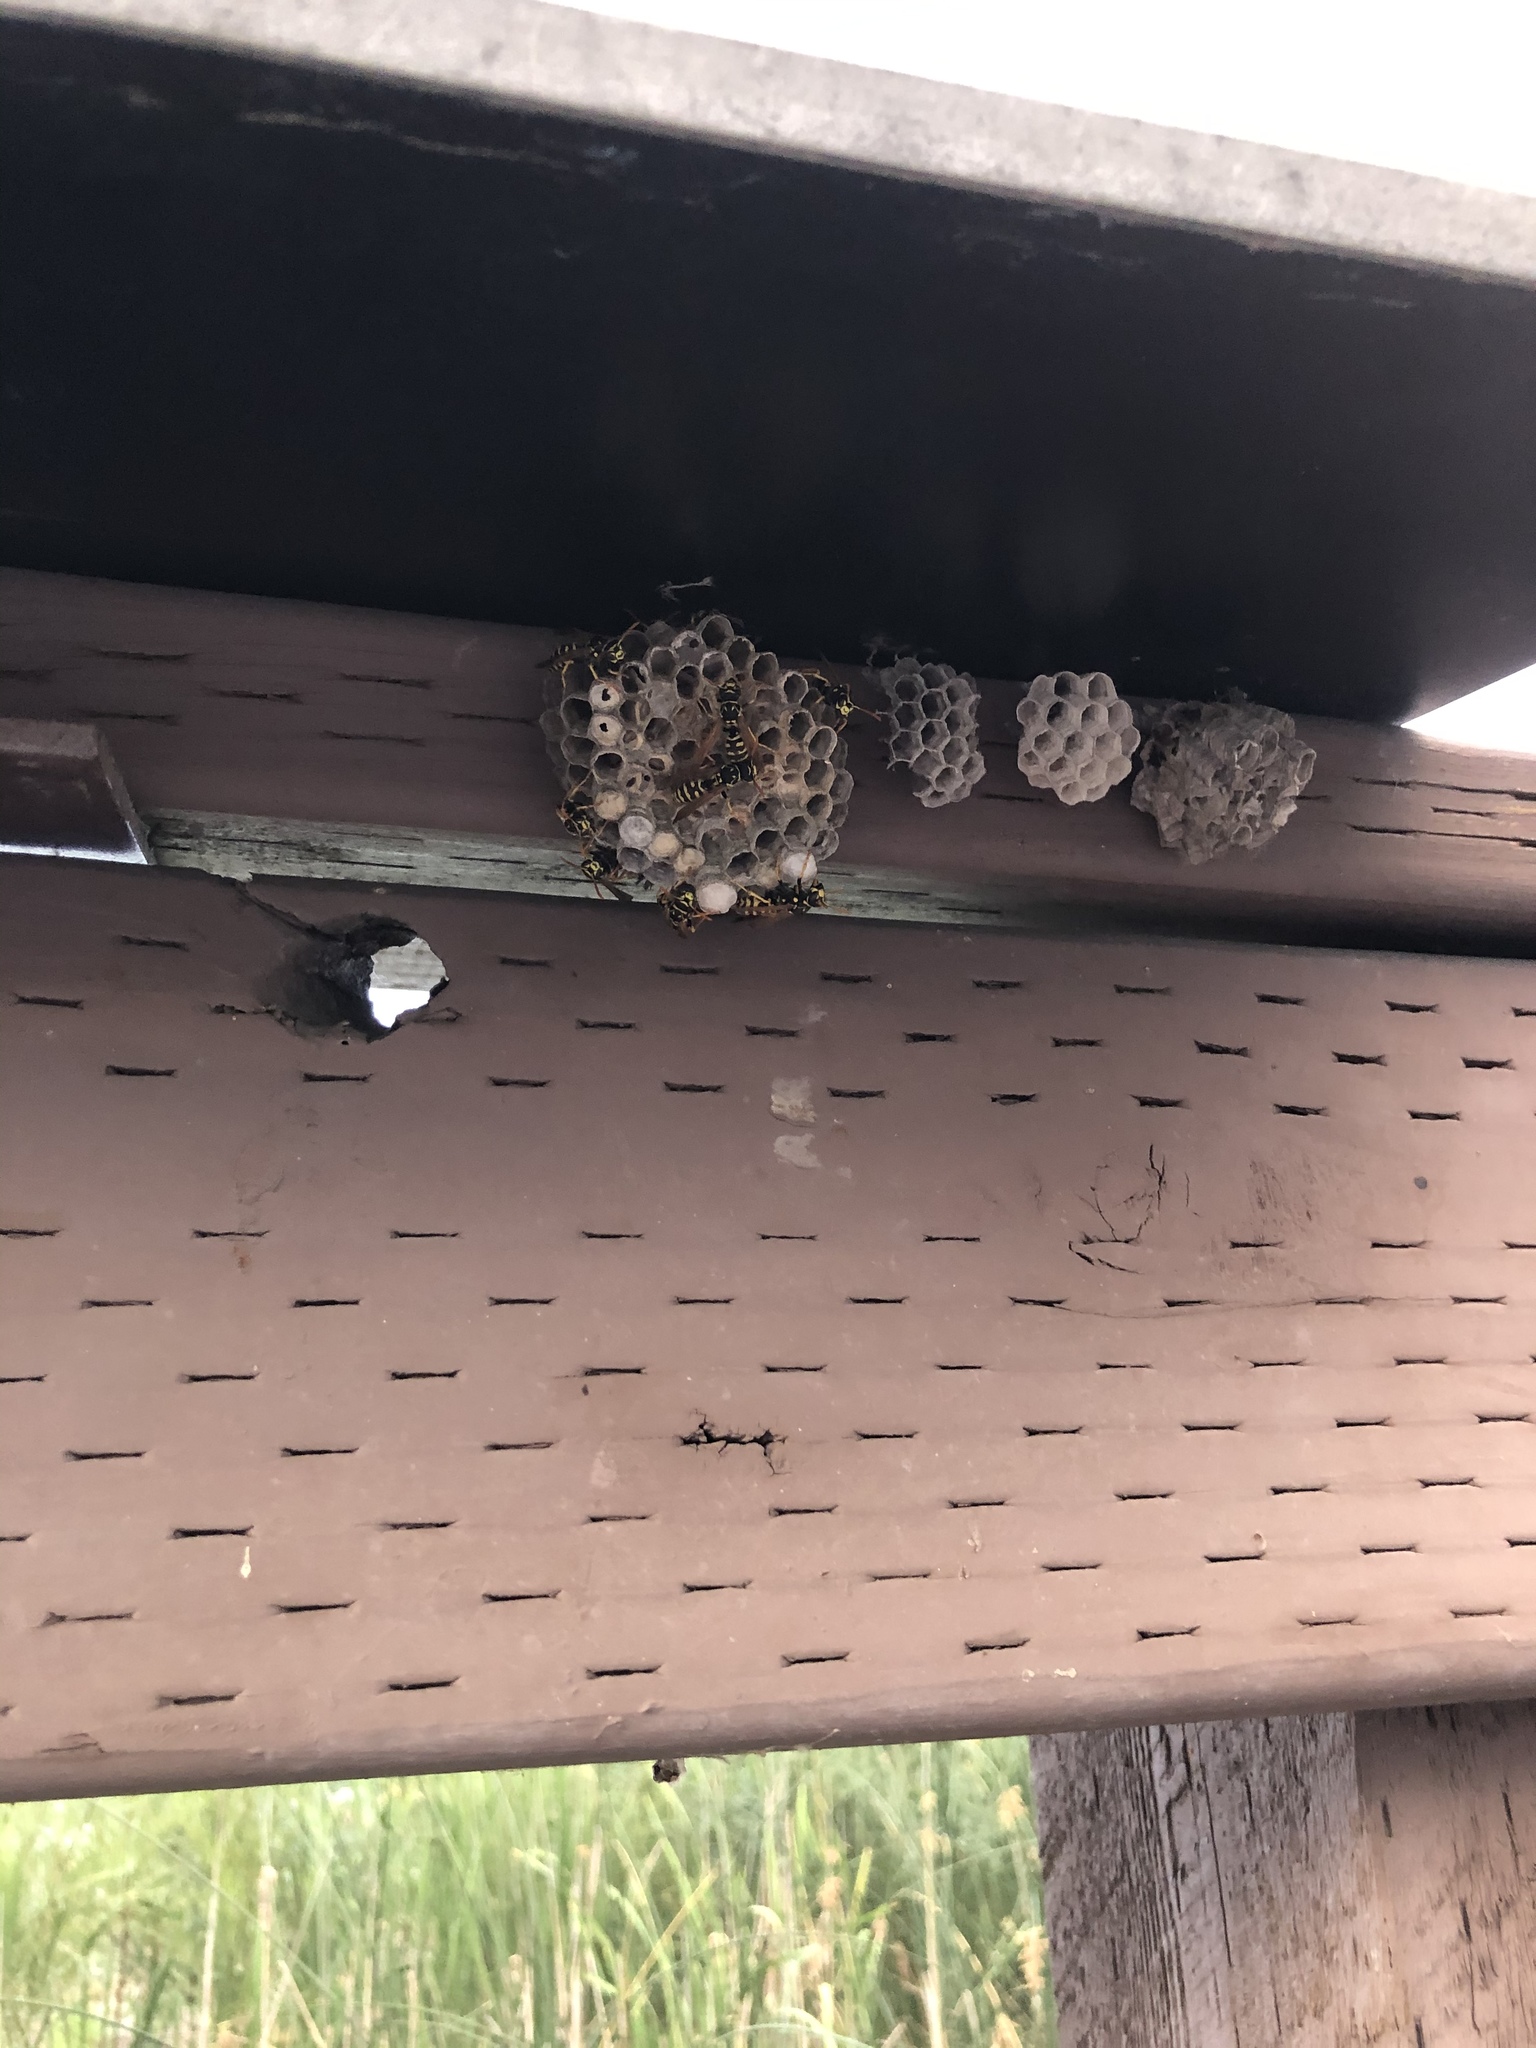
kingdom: Animalia
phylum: Arthropoda
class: Insecta
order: Hymenoptera
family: Eumenidae
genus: Polistes
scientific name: Polistes dominula
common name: Paper wasp
